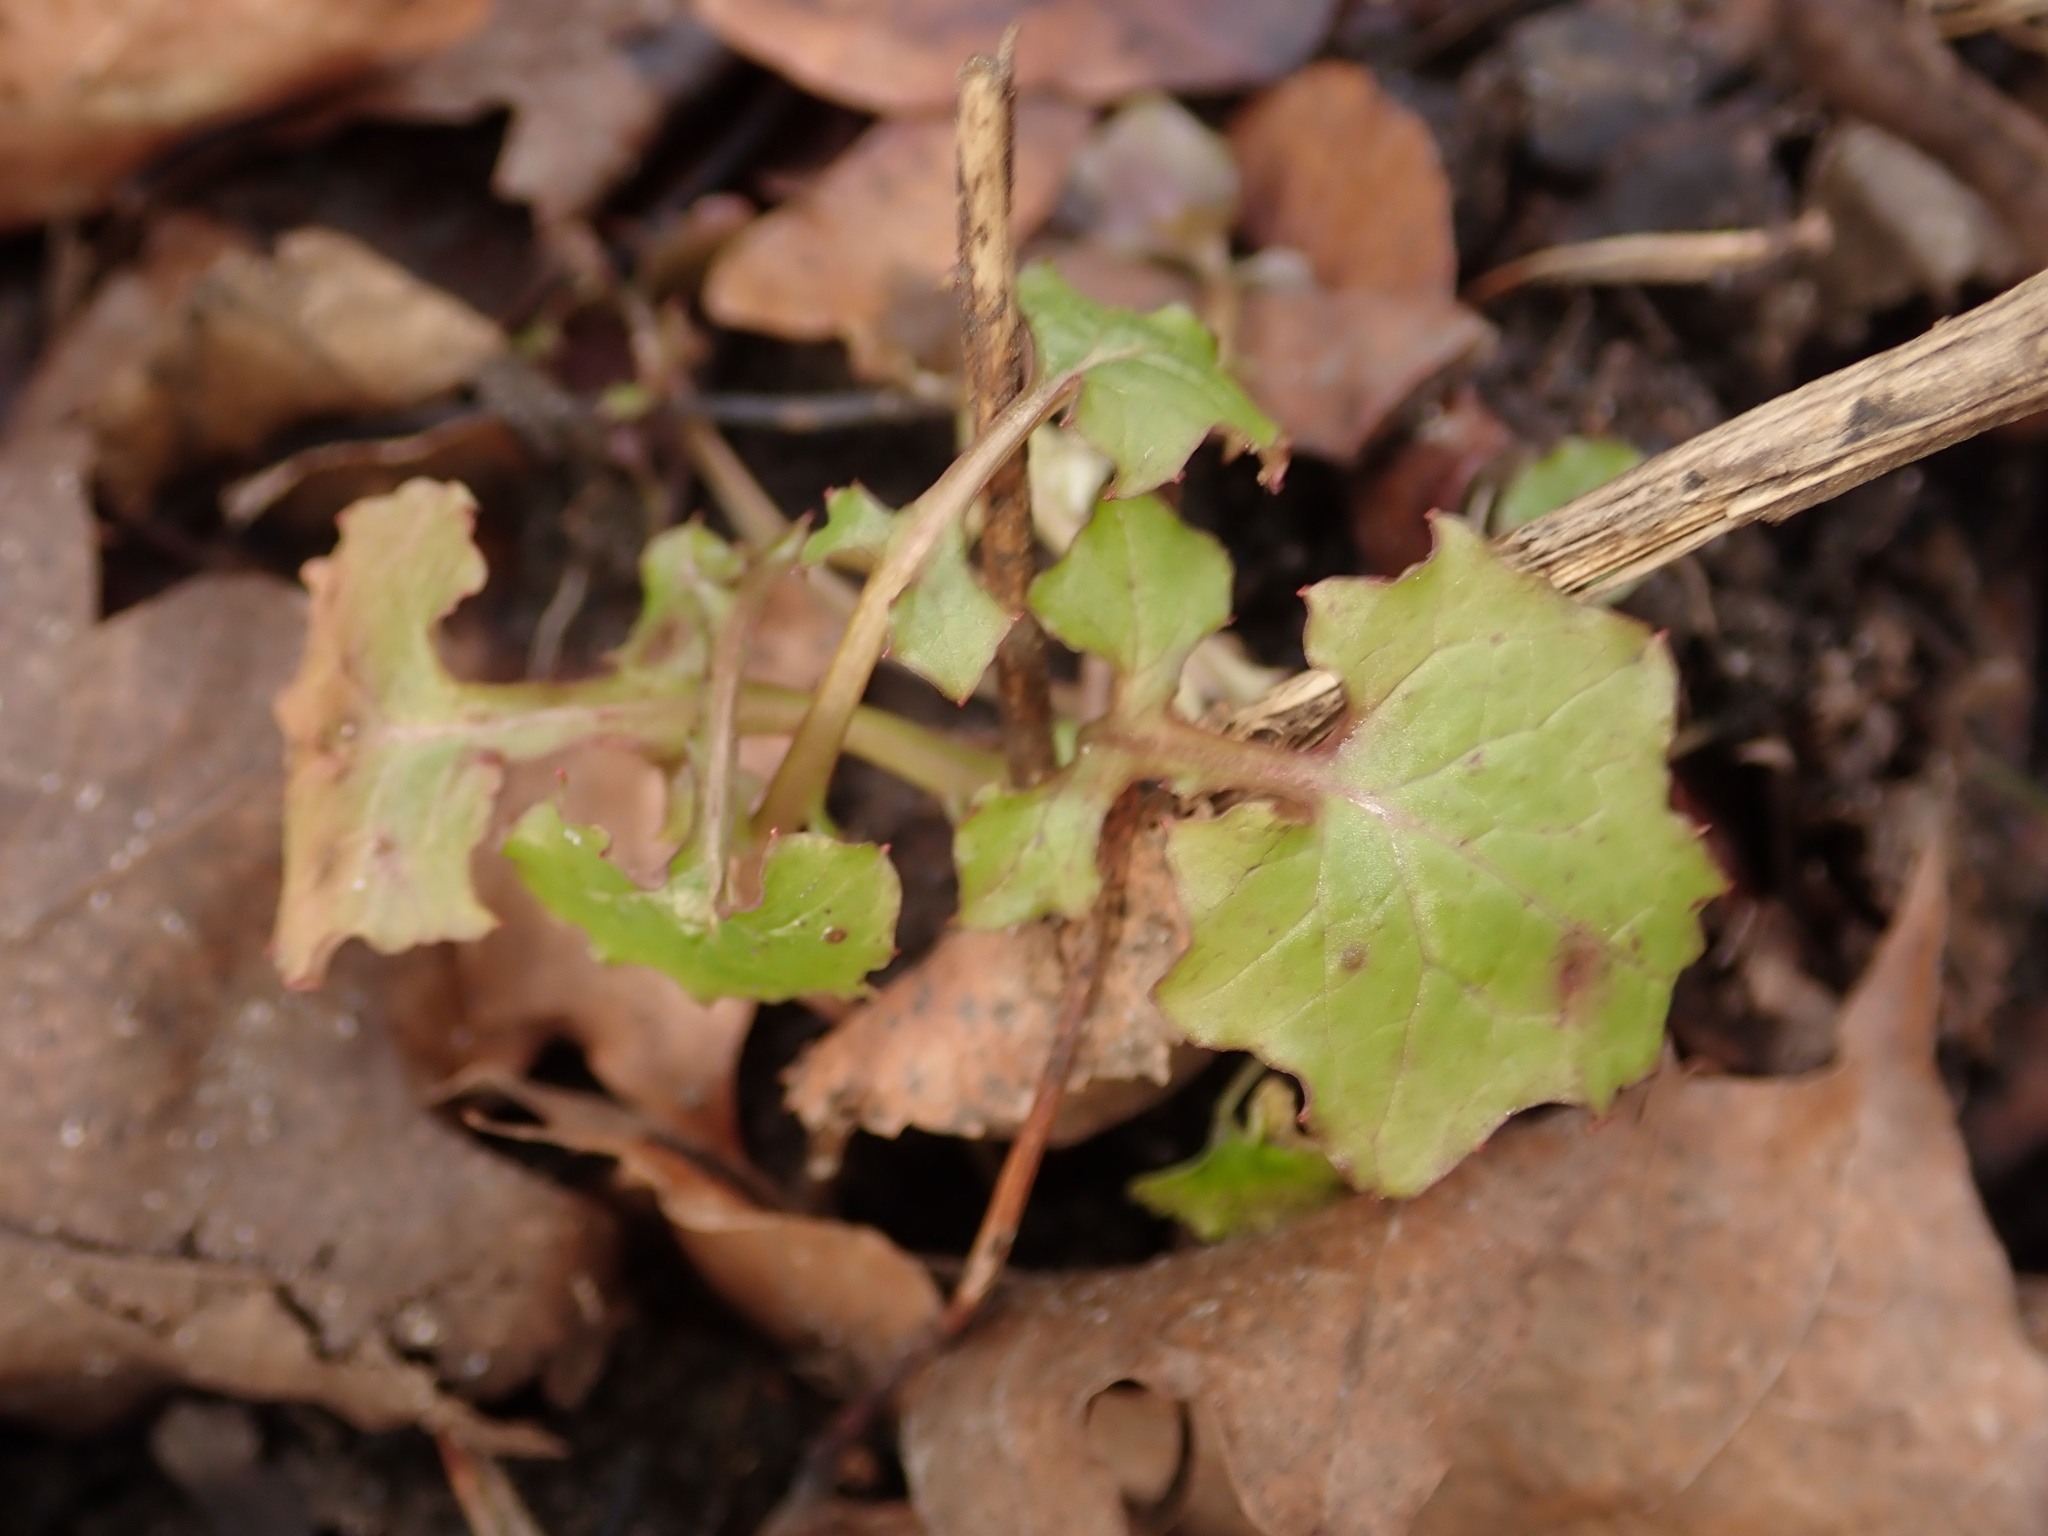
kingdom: Plantae
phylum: Tracheophyta
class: Magnoliopsida
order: Asterales
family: Asteraceae
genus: Mycelis
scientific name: Mycelis muralis
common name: Wall lettuce
